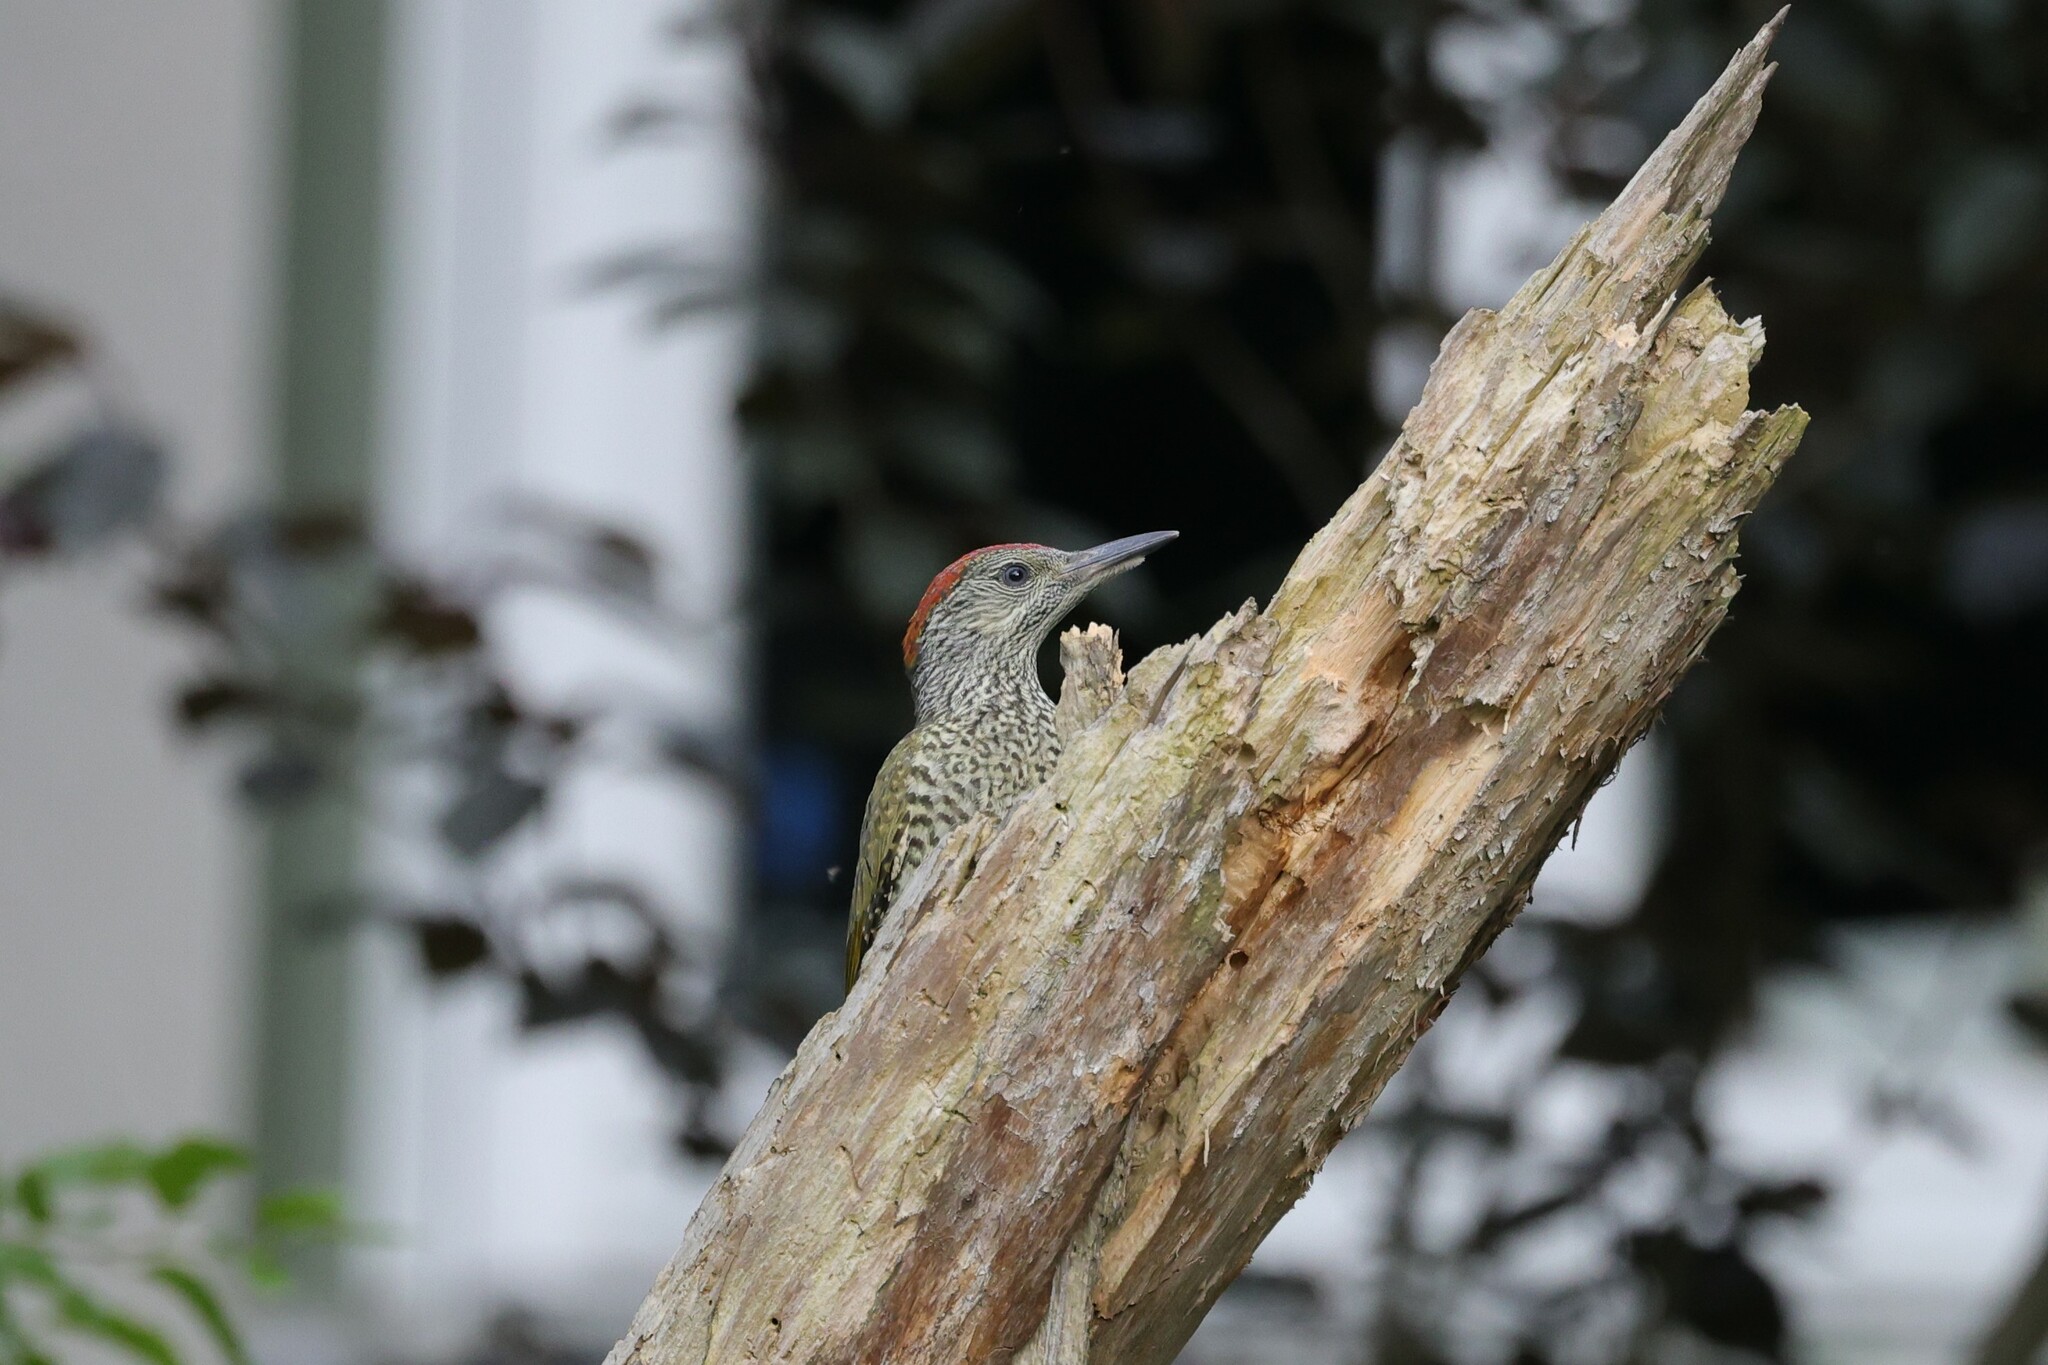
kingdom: Animalia
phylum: Chordata
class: Aves
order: Piciformes
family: Picidae
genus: Picus
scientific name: Picus viridis
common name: European green woodpecker
